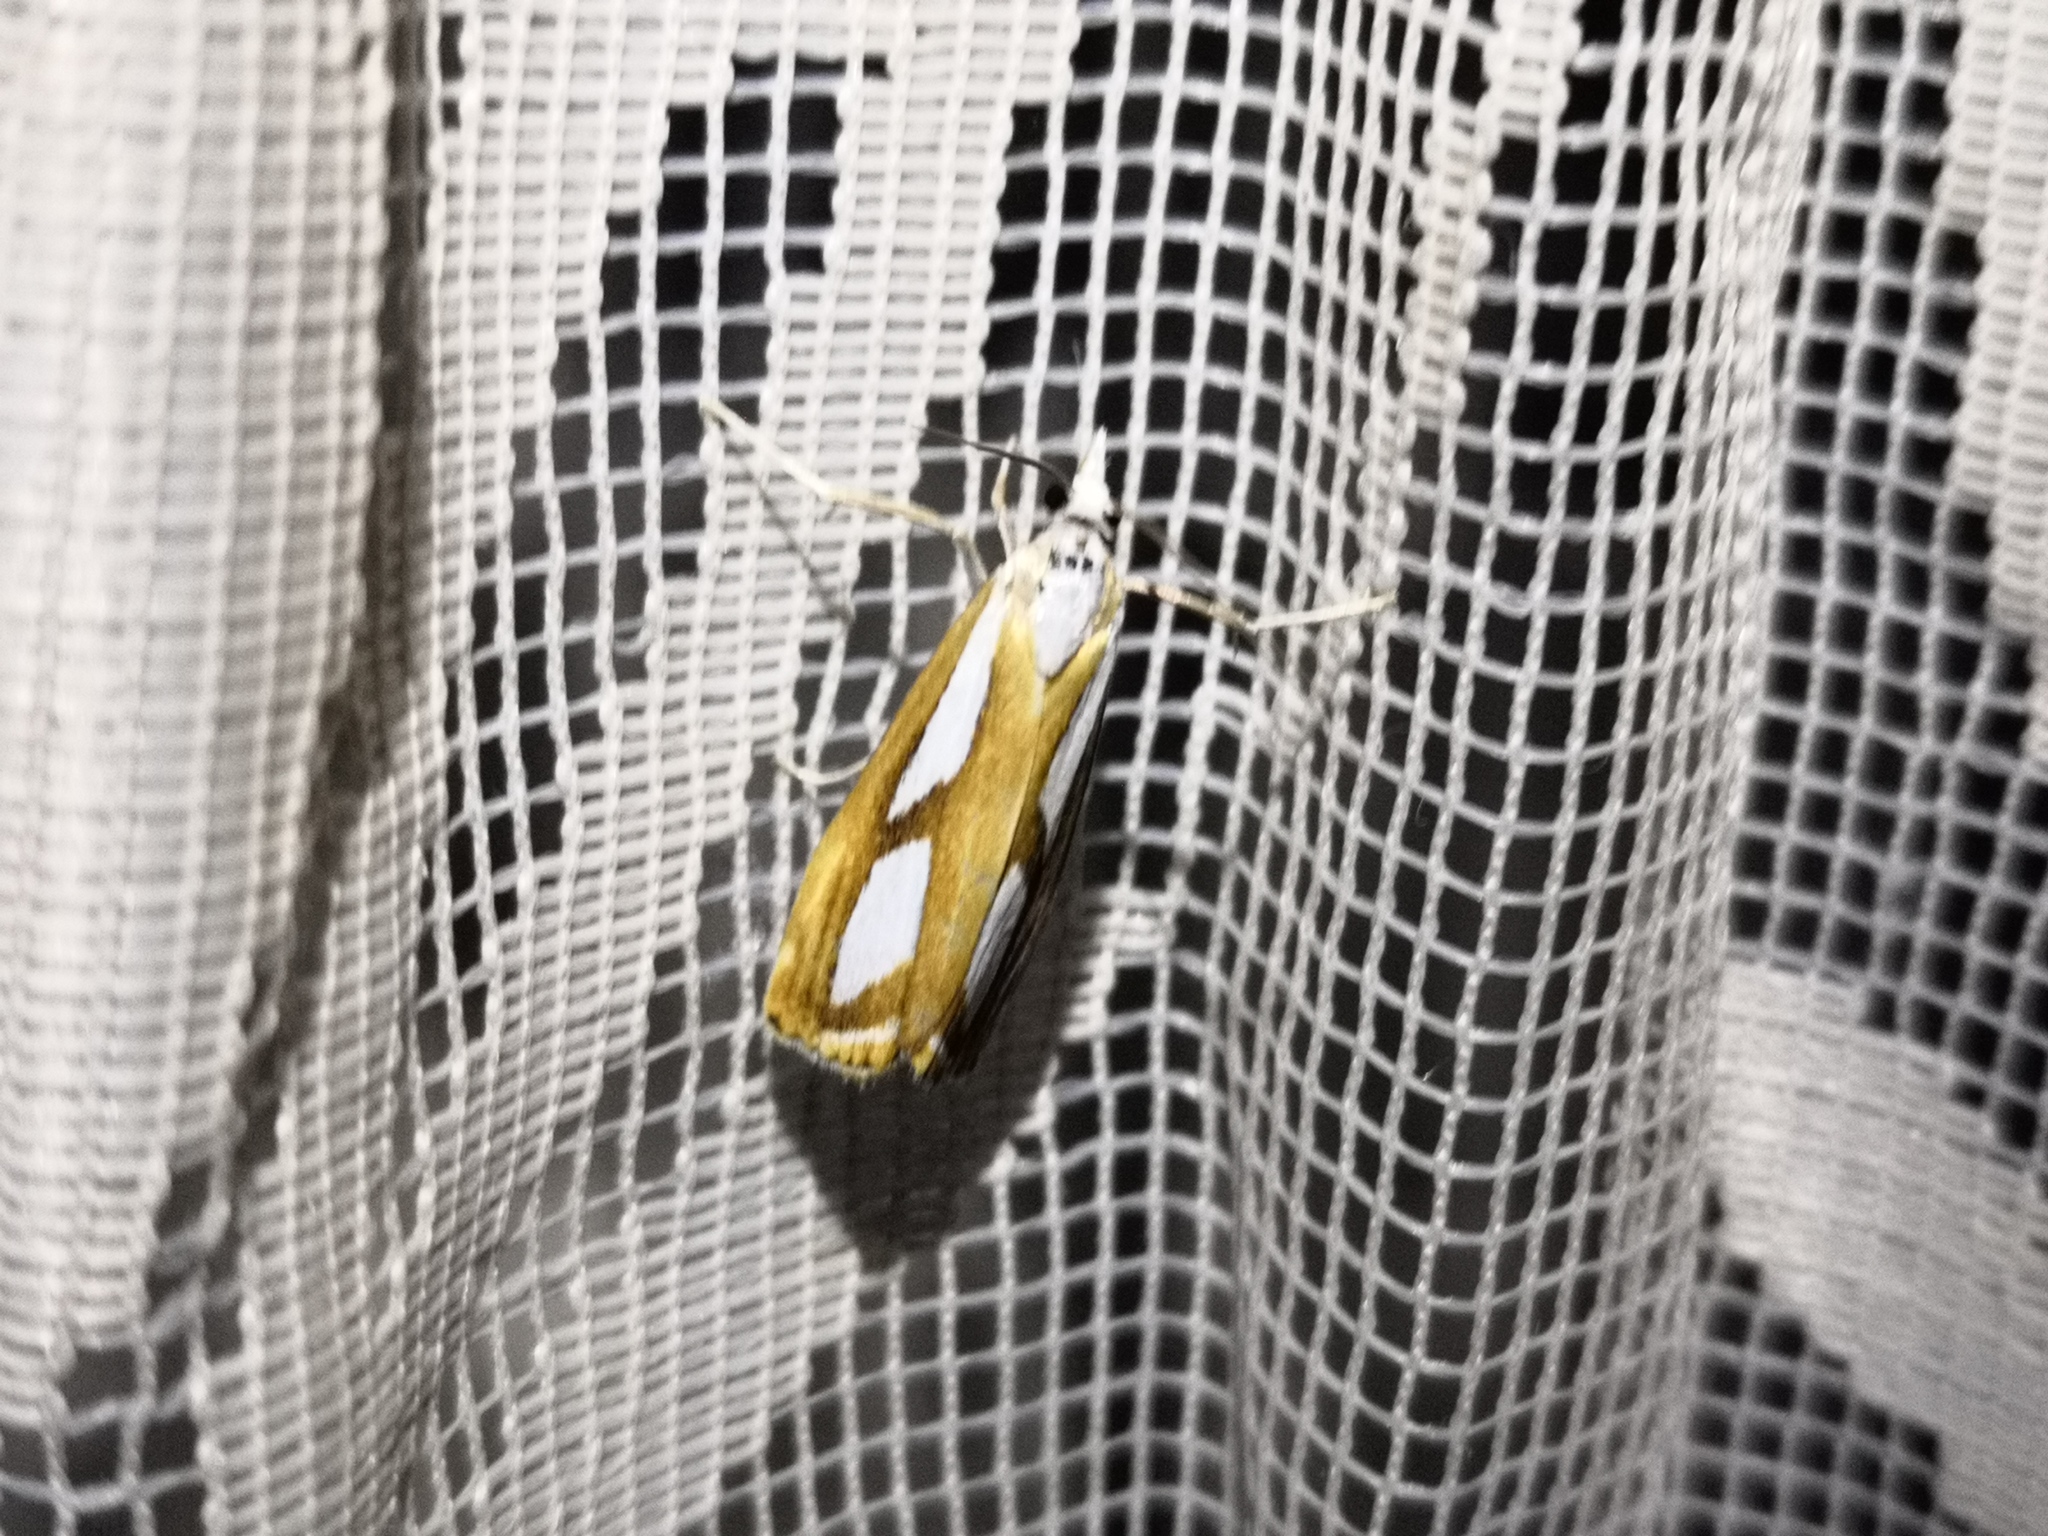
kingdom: Animalia
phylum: Arthropoda
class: Insecta
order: Lepidoptera
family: Crambidae
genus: Catoptria
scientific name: Catoptria permutatellus
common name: Scotch grass-veneer
